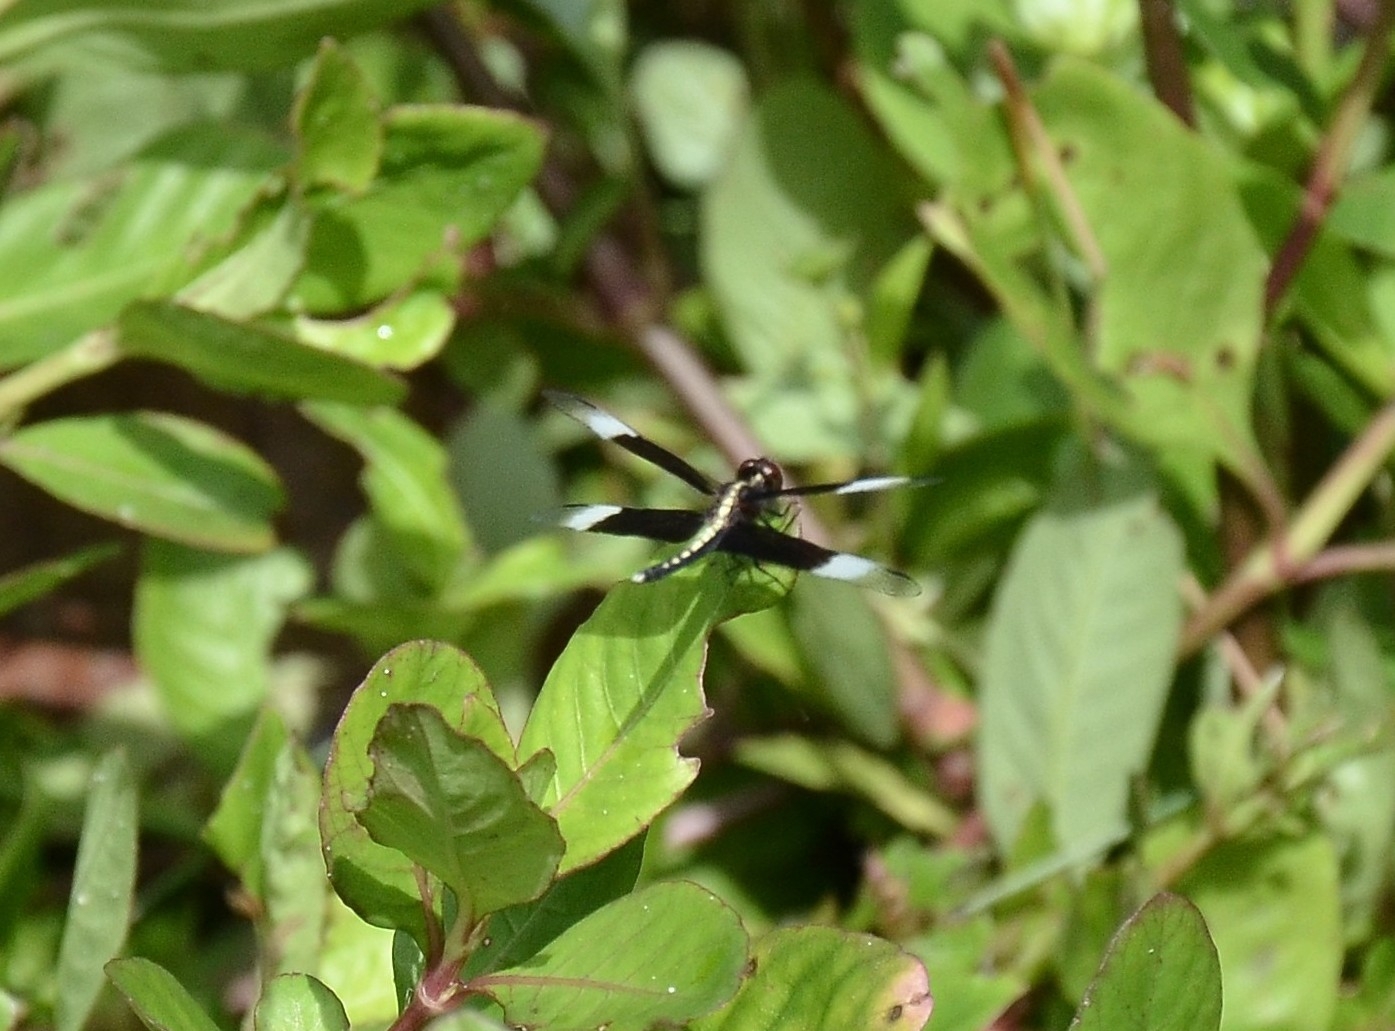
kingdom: Animalia
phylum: Arthropoda
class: Insecta
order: Odonata
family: Libellulidae
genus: Neurothemis
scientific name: Neurothemis tullia
